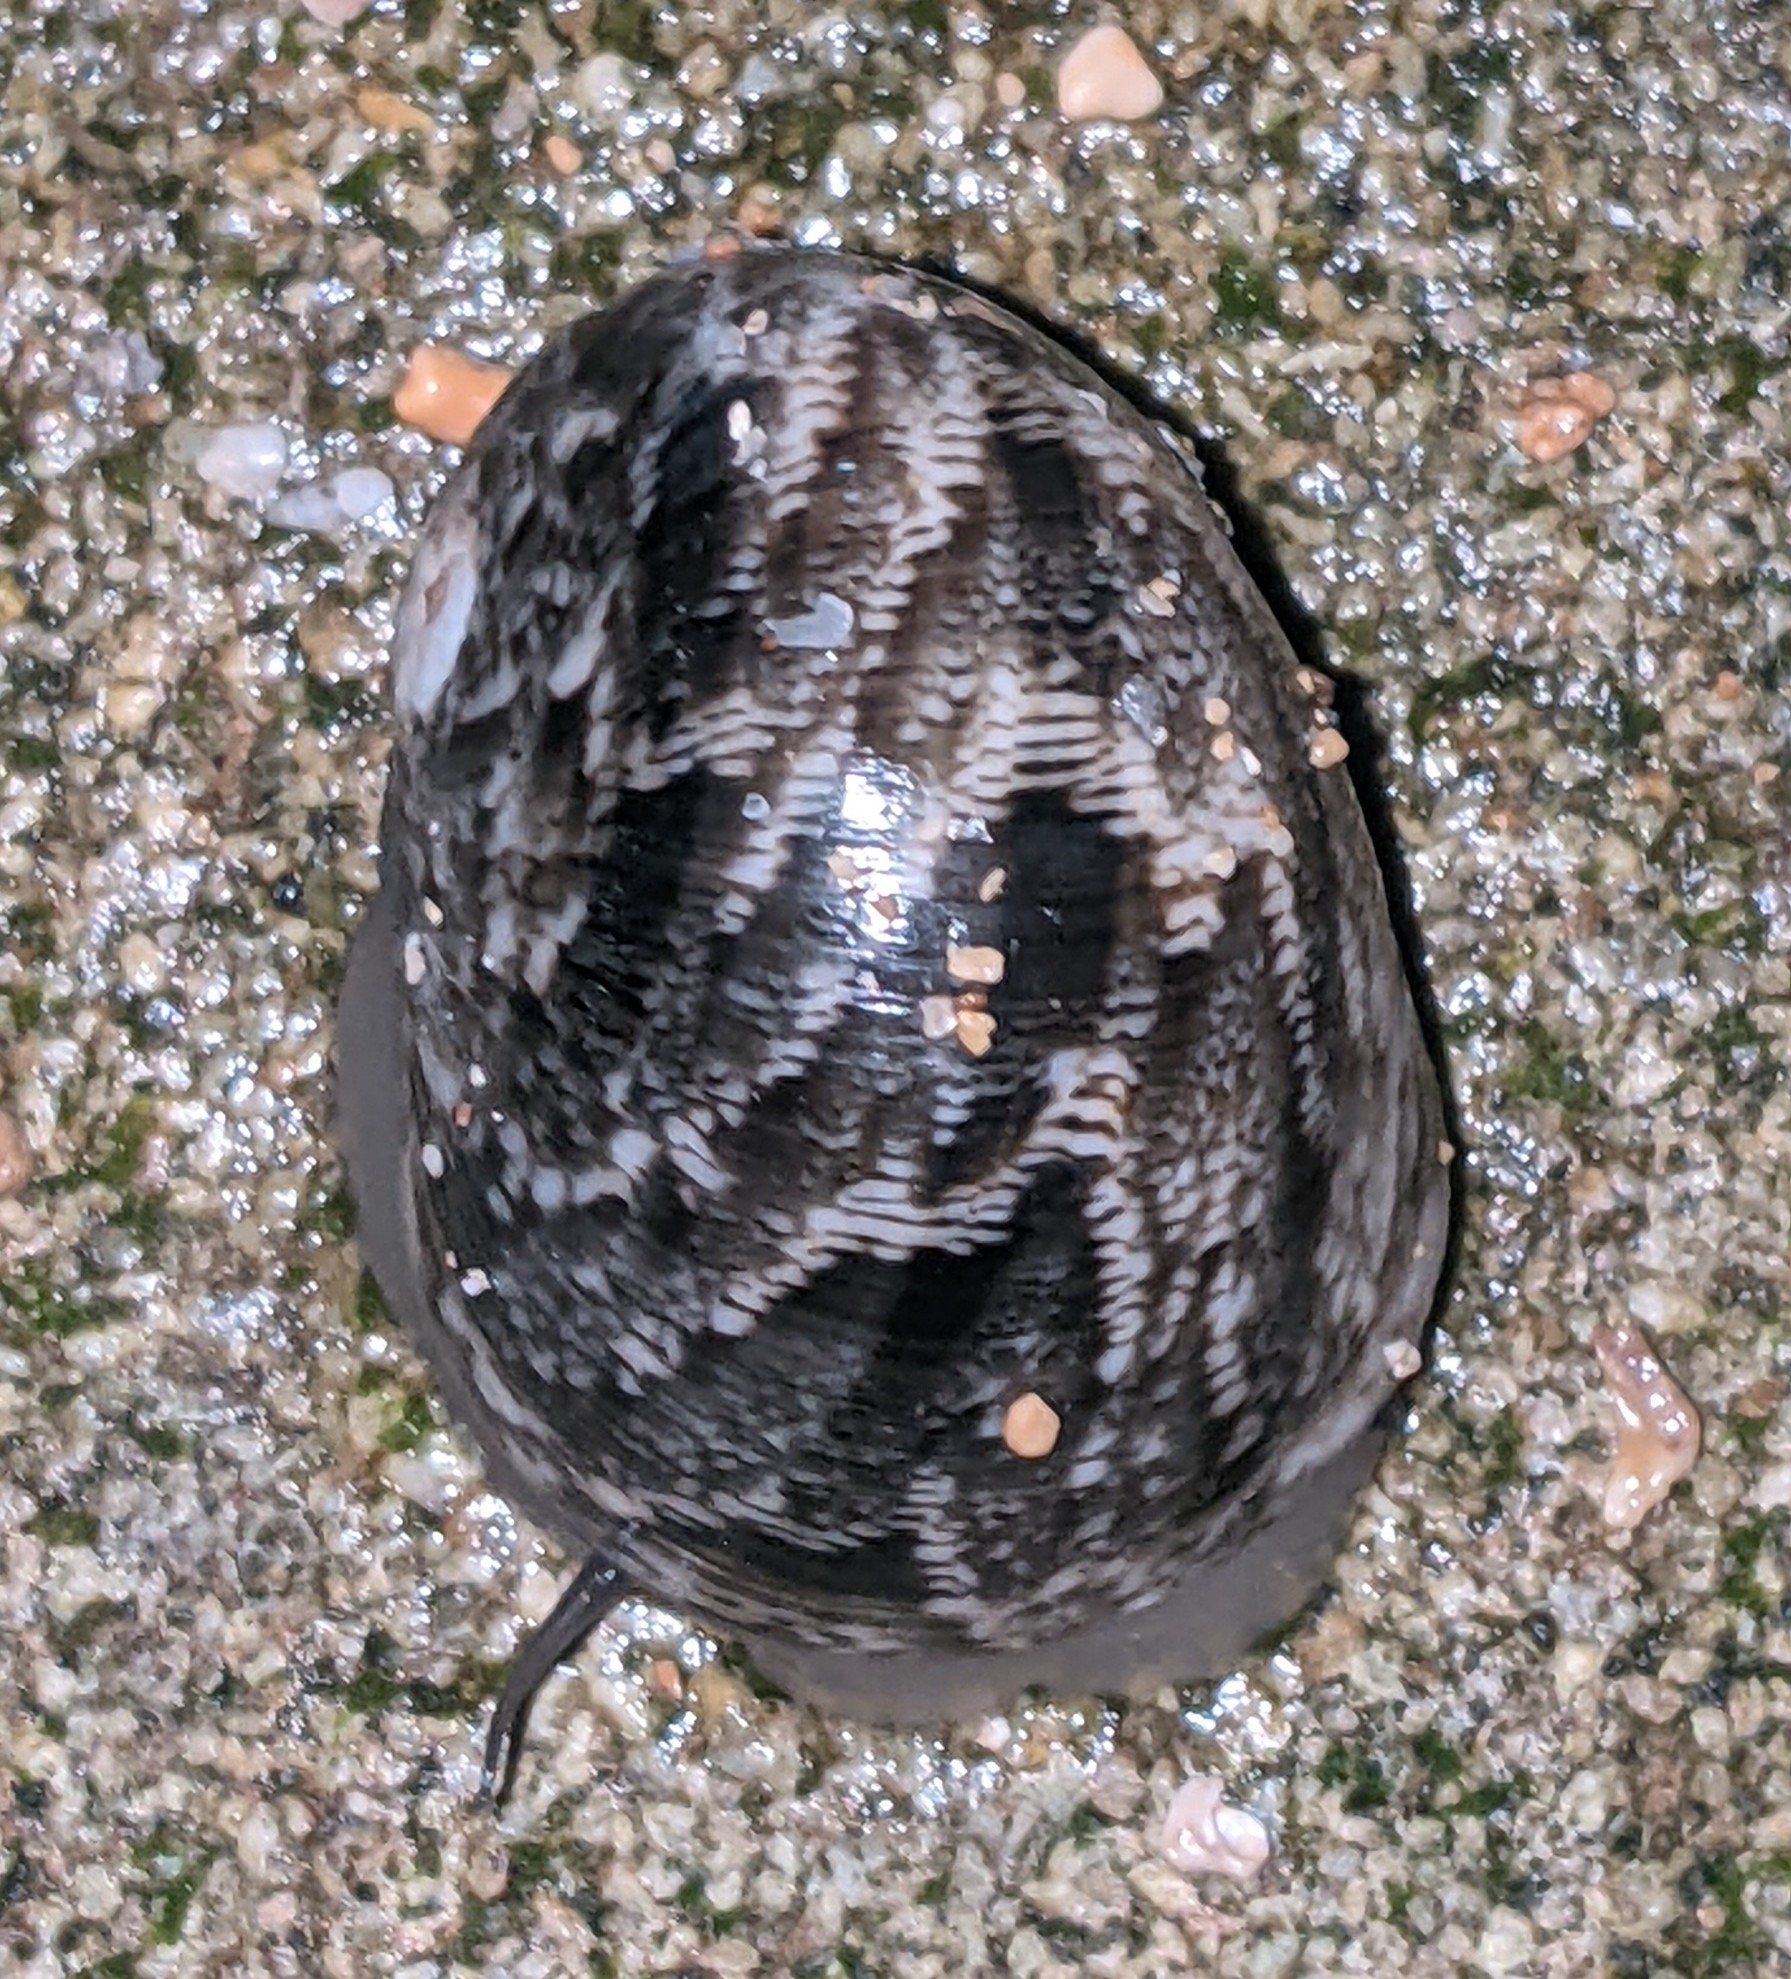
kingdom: Animalia
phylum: Mollusca
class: Gastropoda
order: Cycloneritida
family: Neritidae
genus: Nerita
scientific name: Nerita polita
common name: Polished nerite
